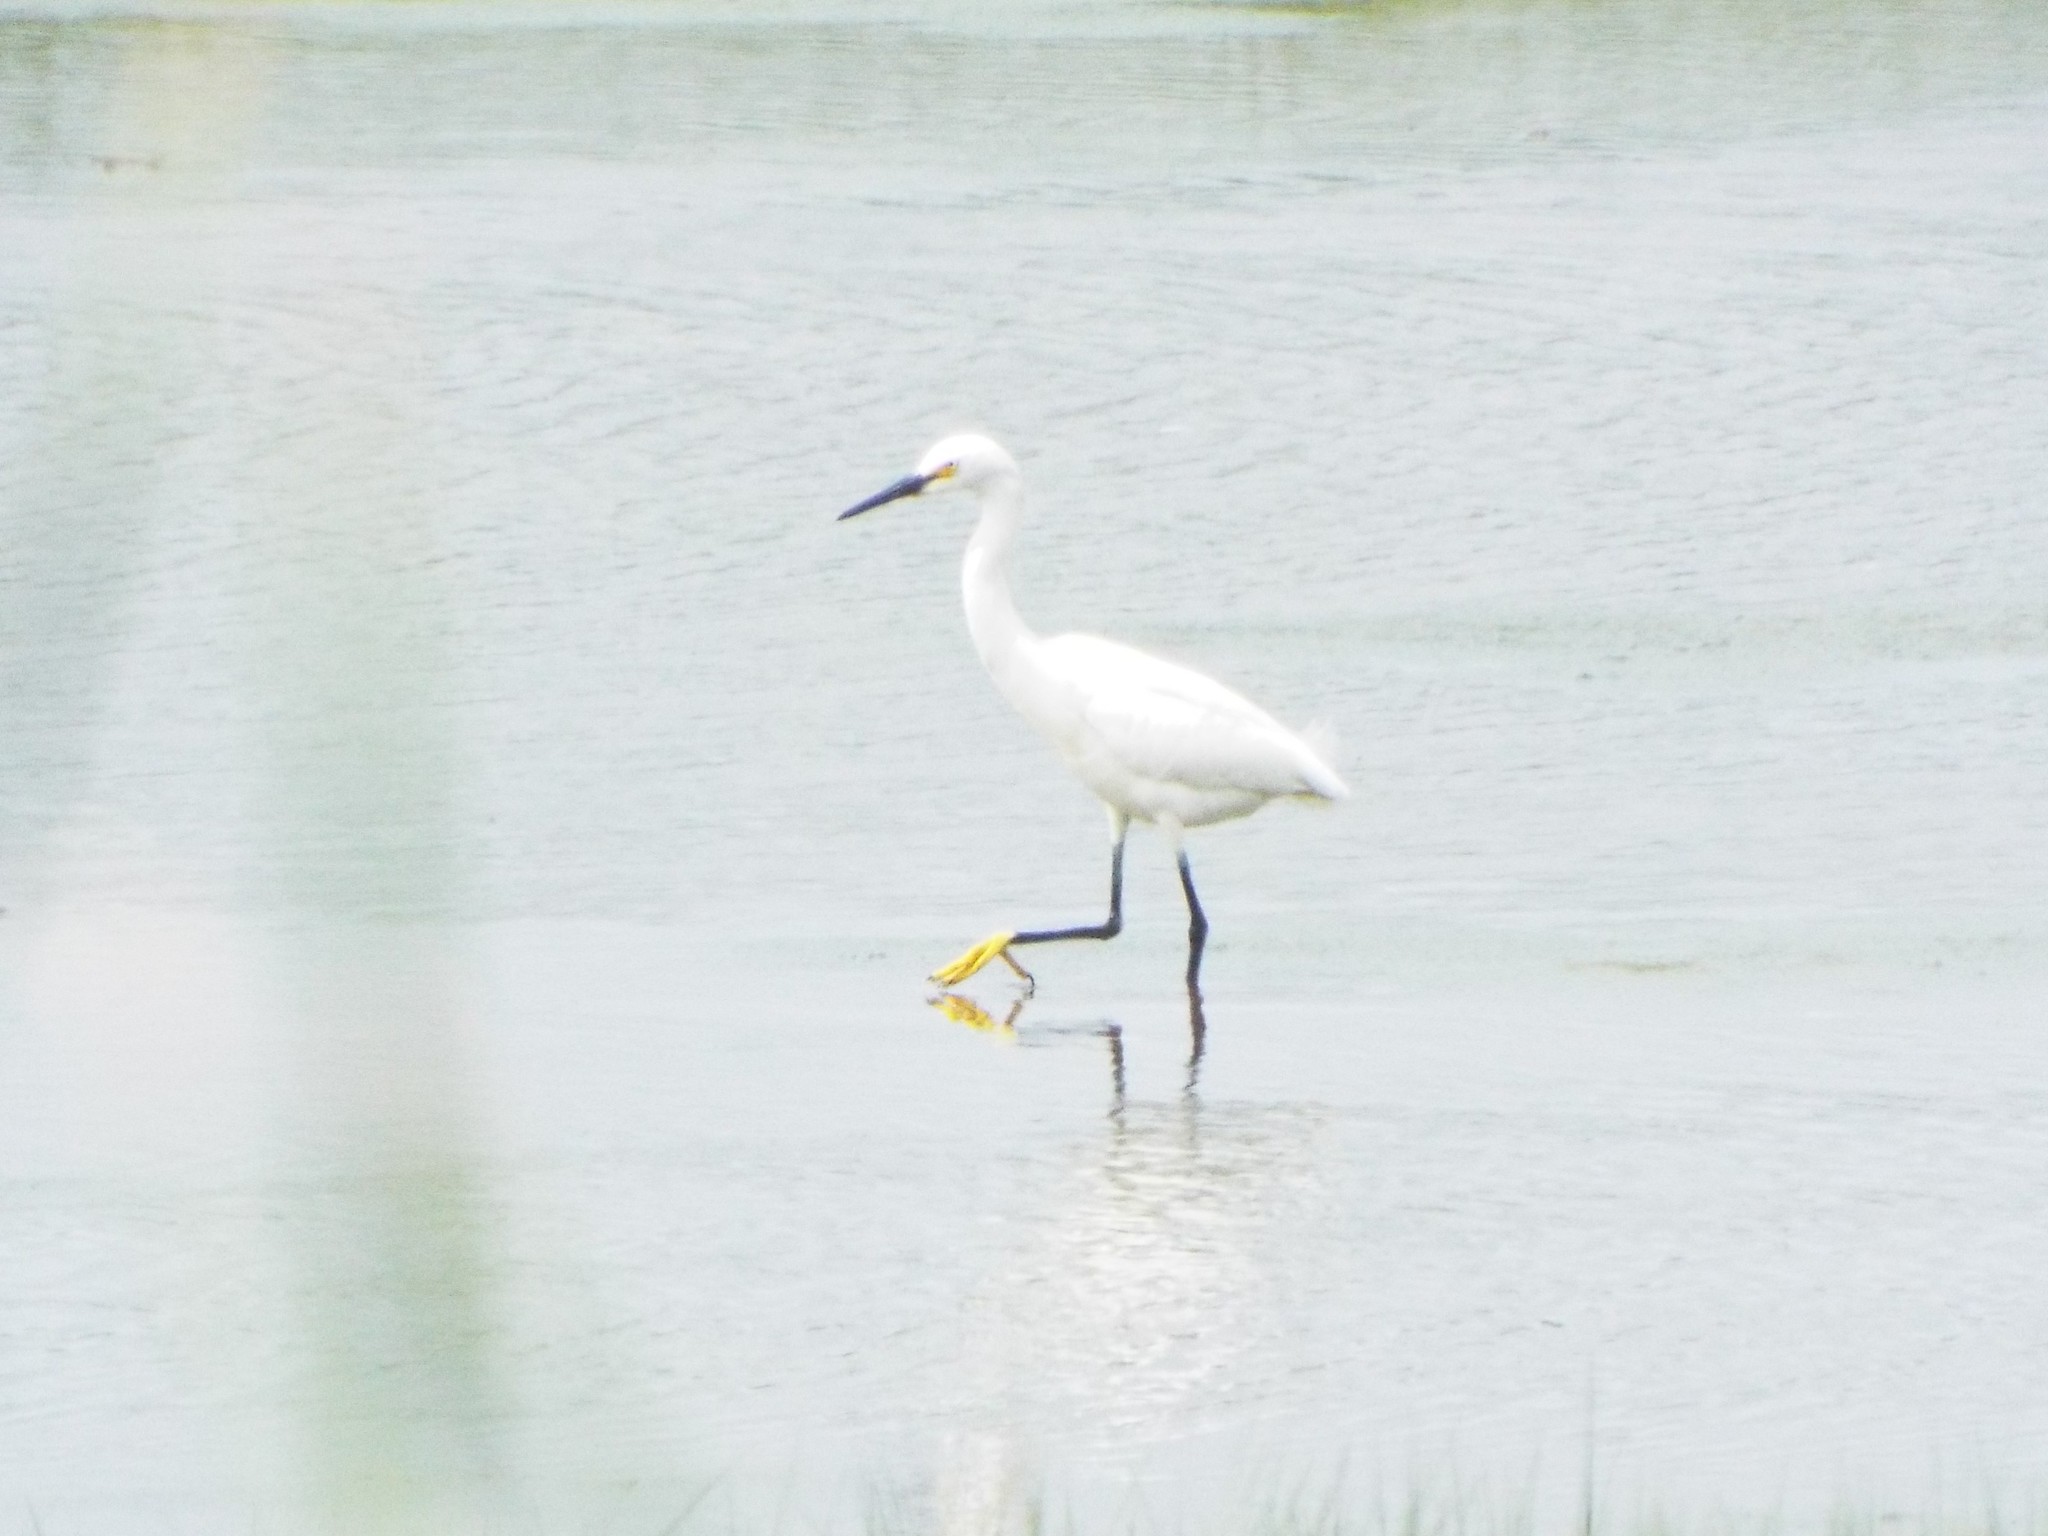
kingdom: Animalia
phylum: Chordata
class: Aves
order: Pelecaniformes
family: Ardeidae
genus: Egretta
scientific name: Egretta thula
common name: Snowy egret
